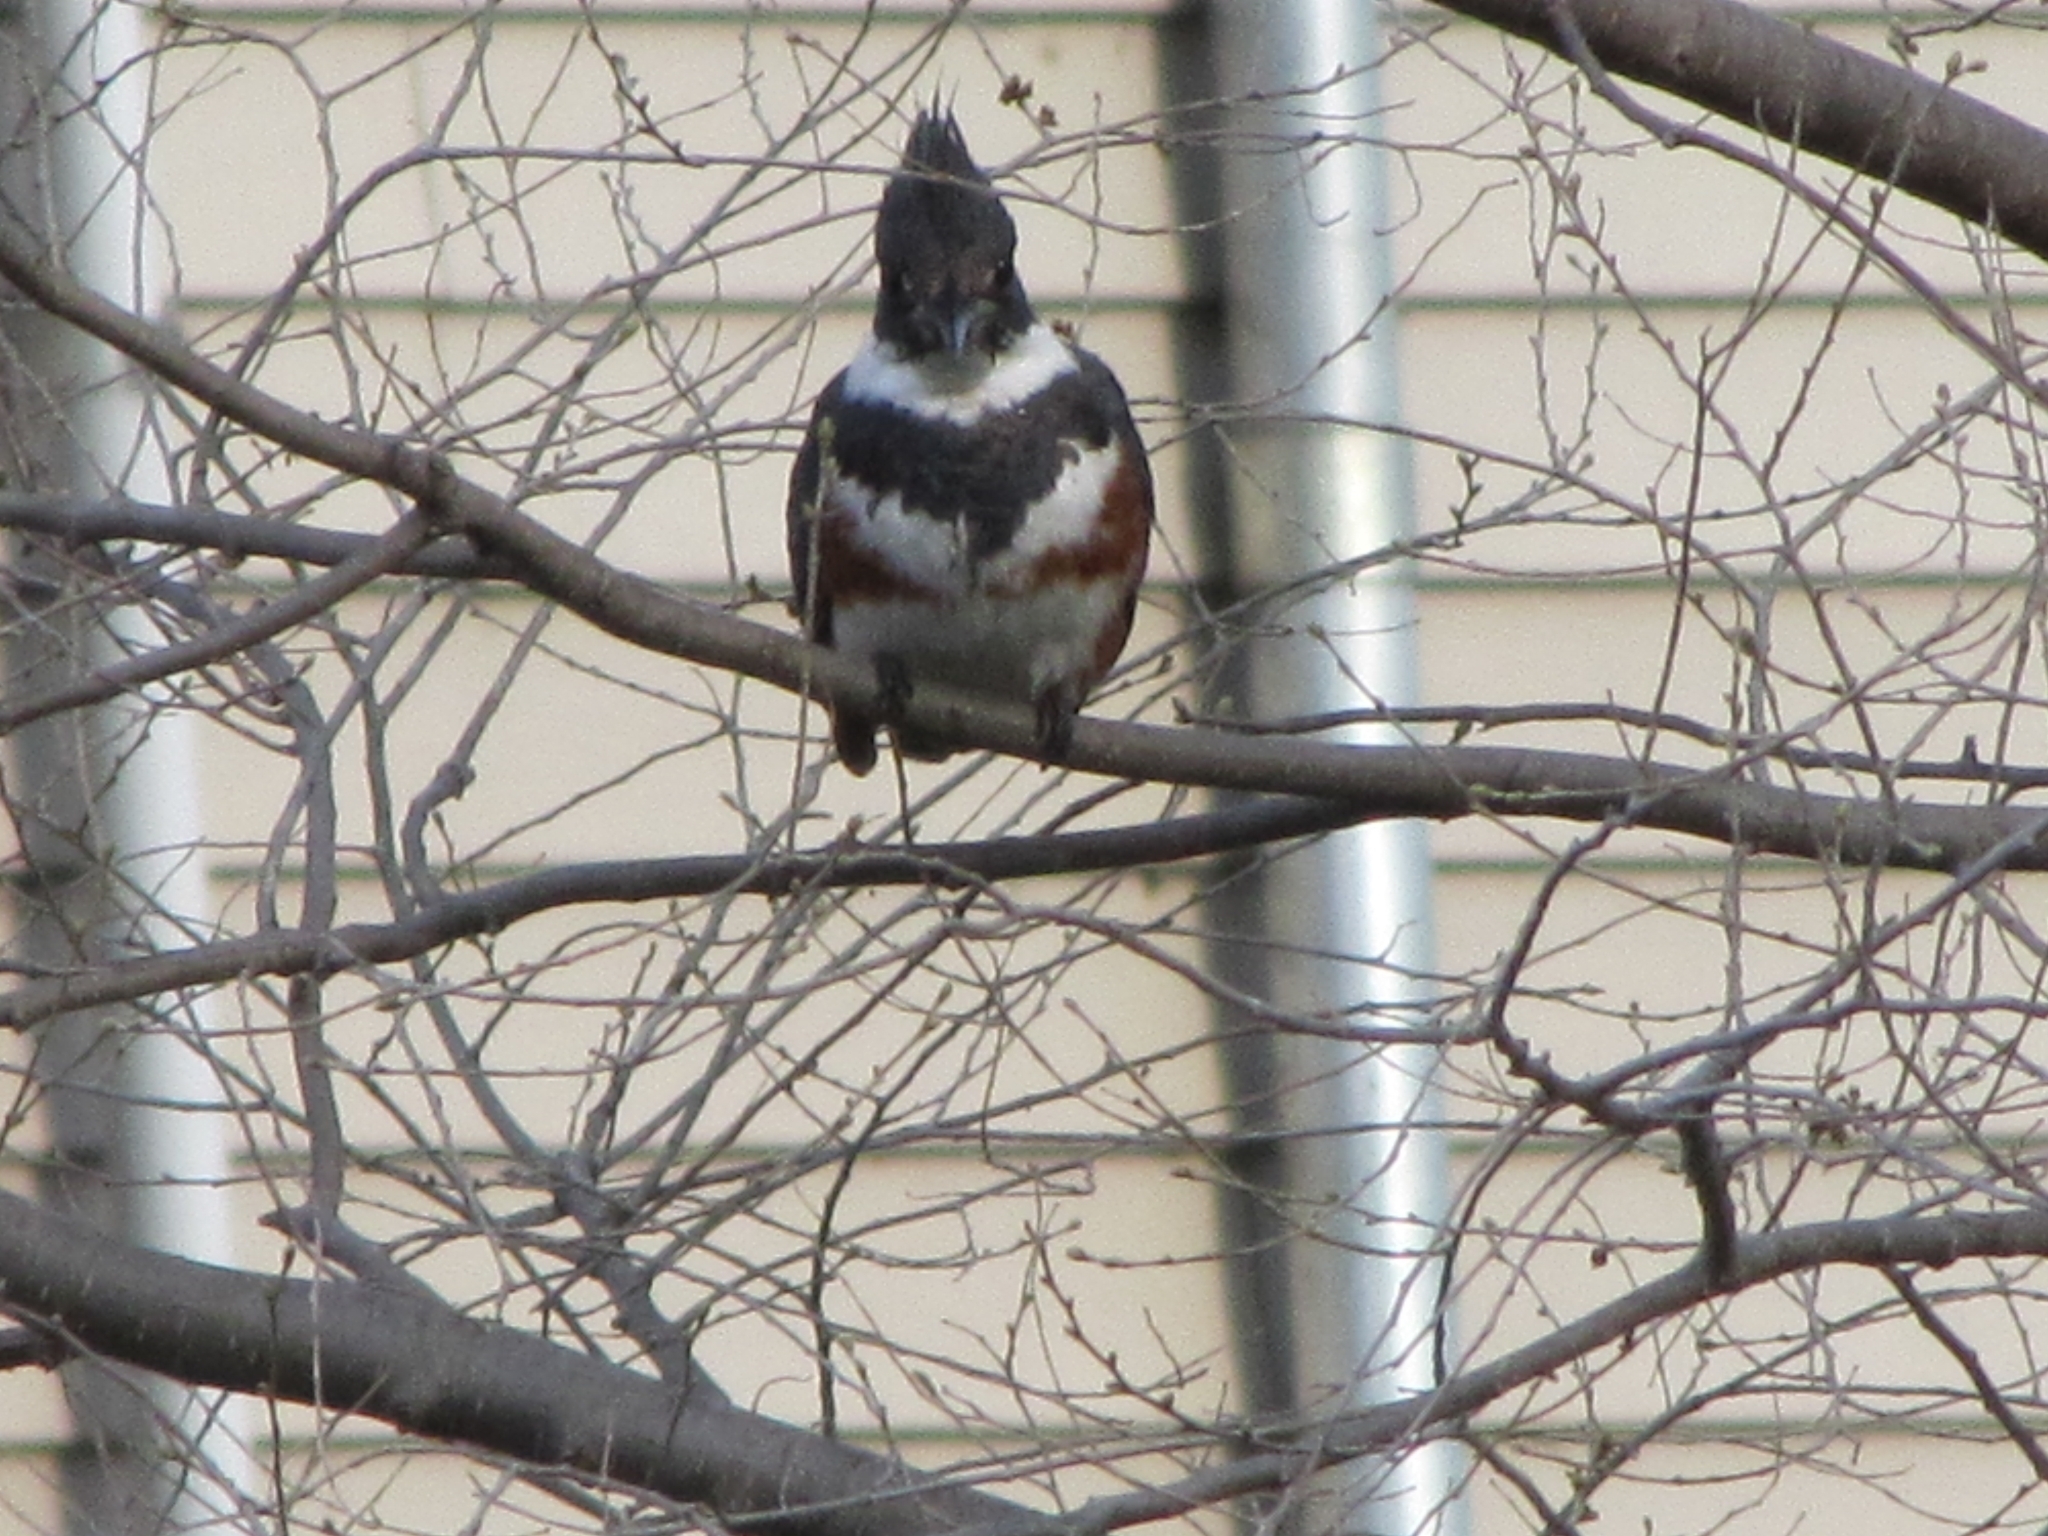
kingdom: Animalia
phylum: Chordata
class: Aves
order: Coraciiformes
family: Alcedinidae
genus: Megaceryle
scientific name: Megaceryle alcyon
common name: Belted kingfisher
